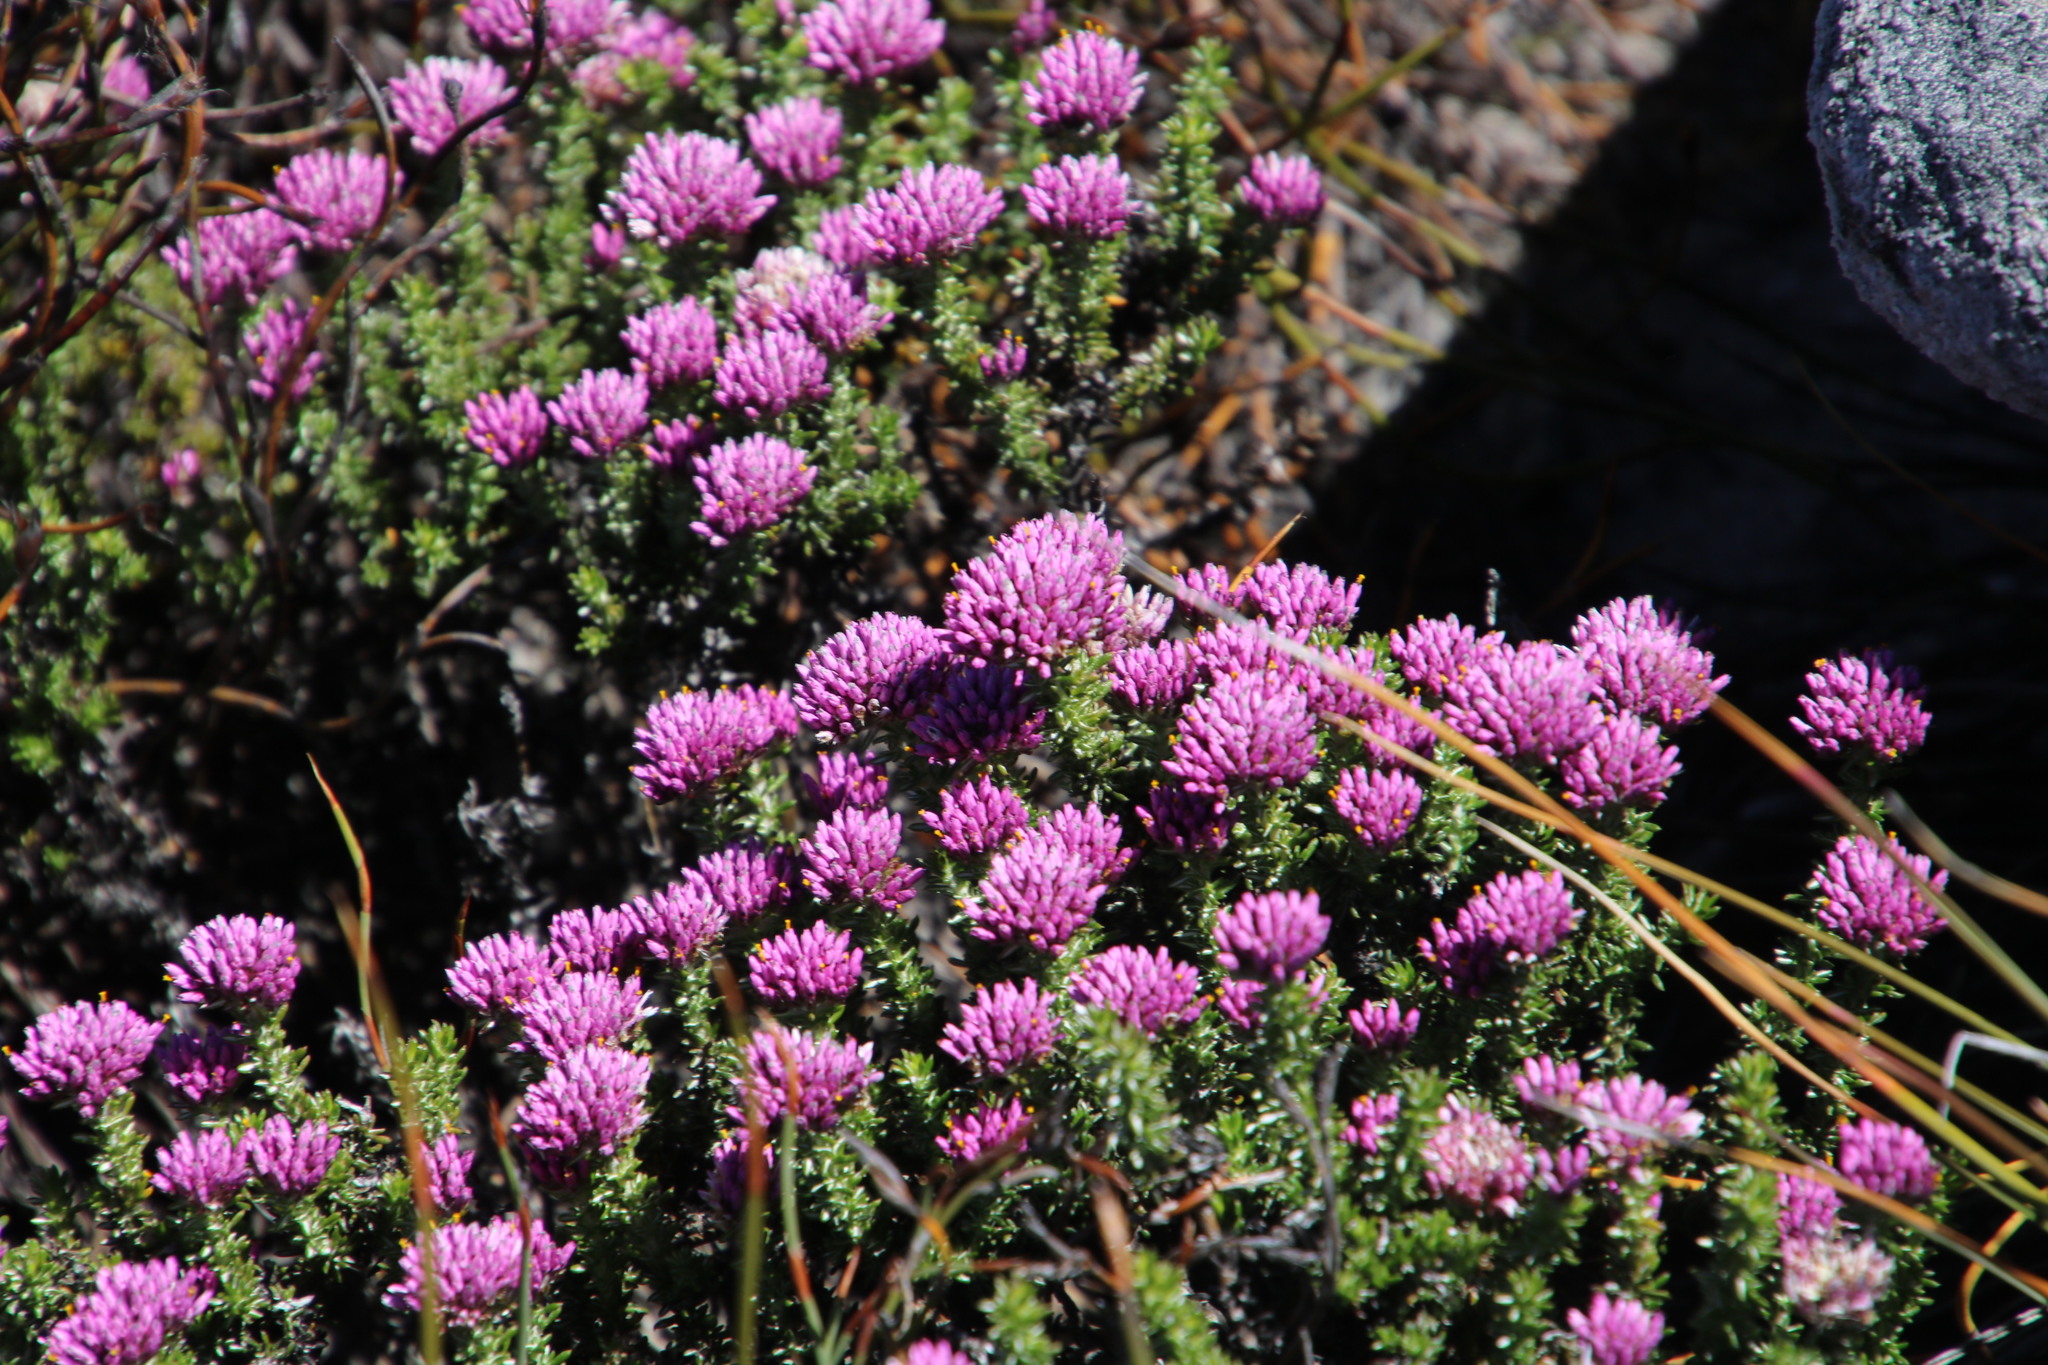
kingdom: Plantae
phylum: Tracheophyta
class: Magnoliopsida
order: Asterales
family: Asteraceae
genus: Metalasia
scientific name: Metalasia phillipsii
